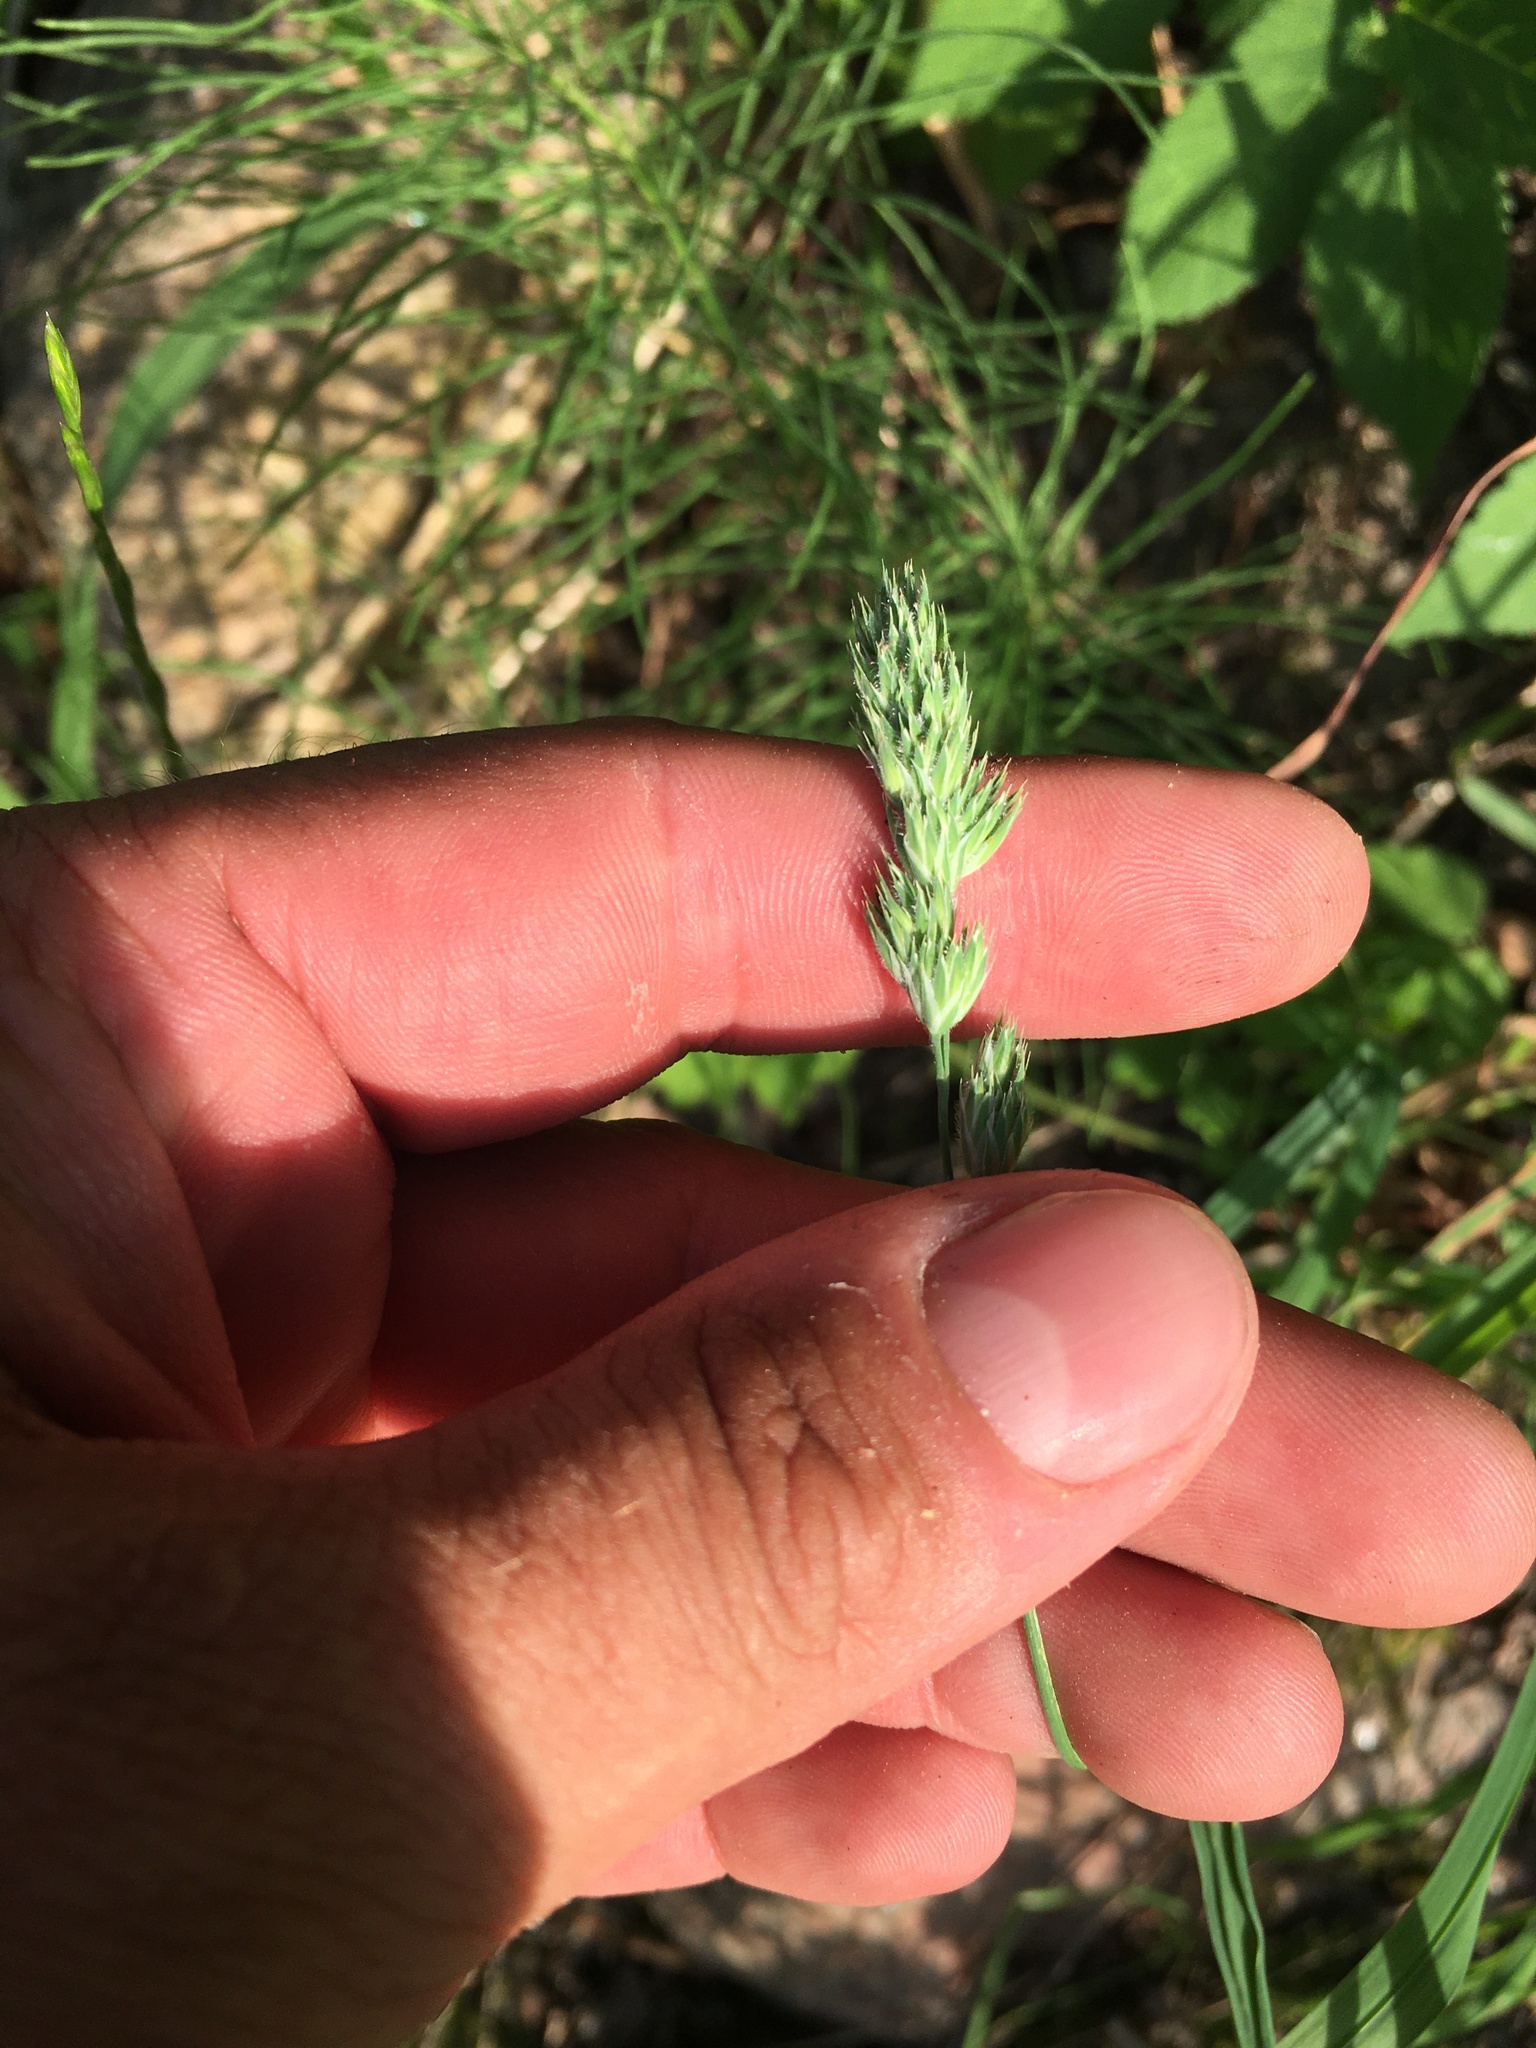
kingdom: Plantae
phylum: Tracheophyta
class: Liliopsida
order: Poales
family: Poaceae
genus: Dactylis
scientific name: Dactylis glomerata
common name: Orchardgrass
